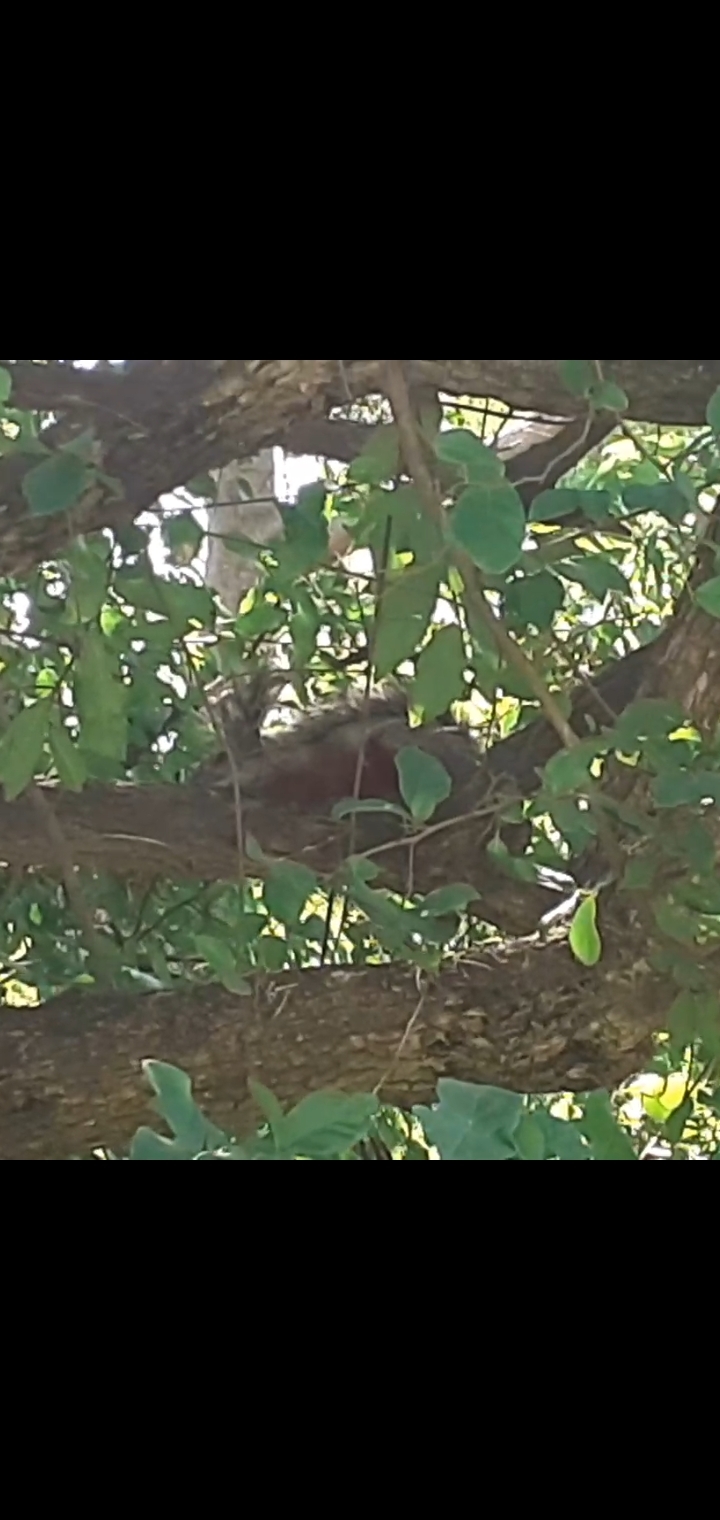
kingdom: Animalia
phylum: Chordata
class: Mammalia
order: Rodentia
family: Sciuridae
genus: Sciurus
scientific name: Sciurus aureogaster
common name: Red-bellied squirrel
